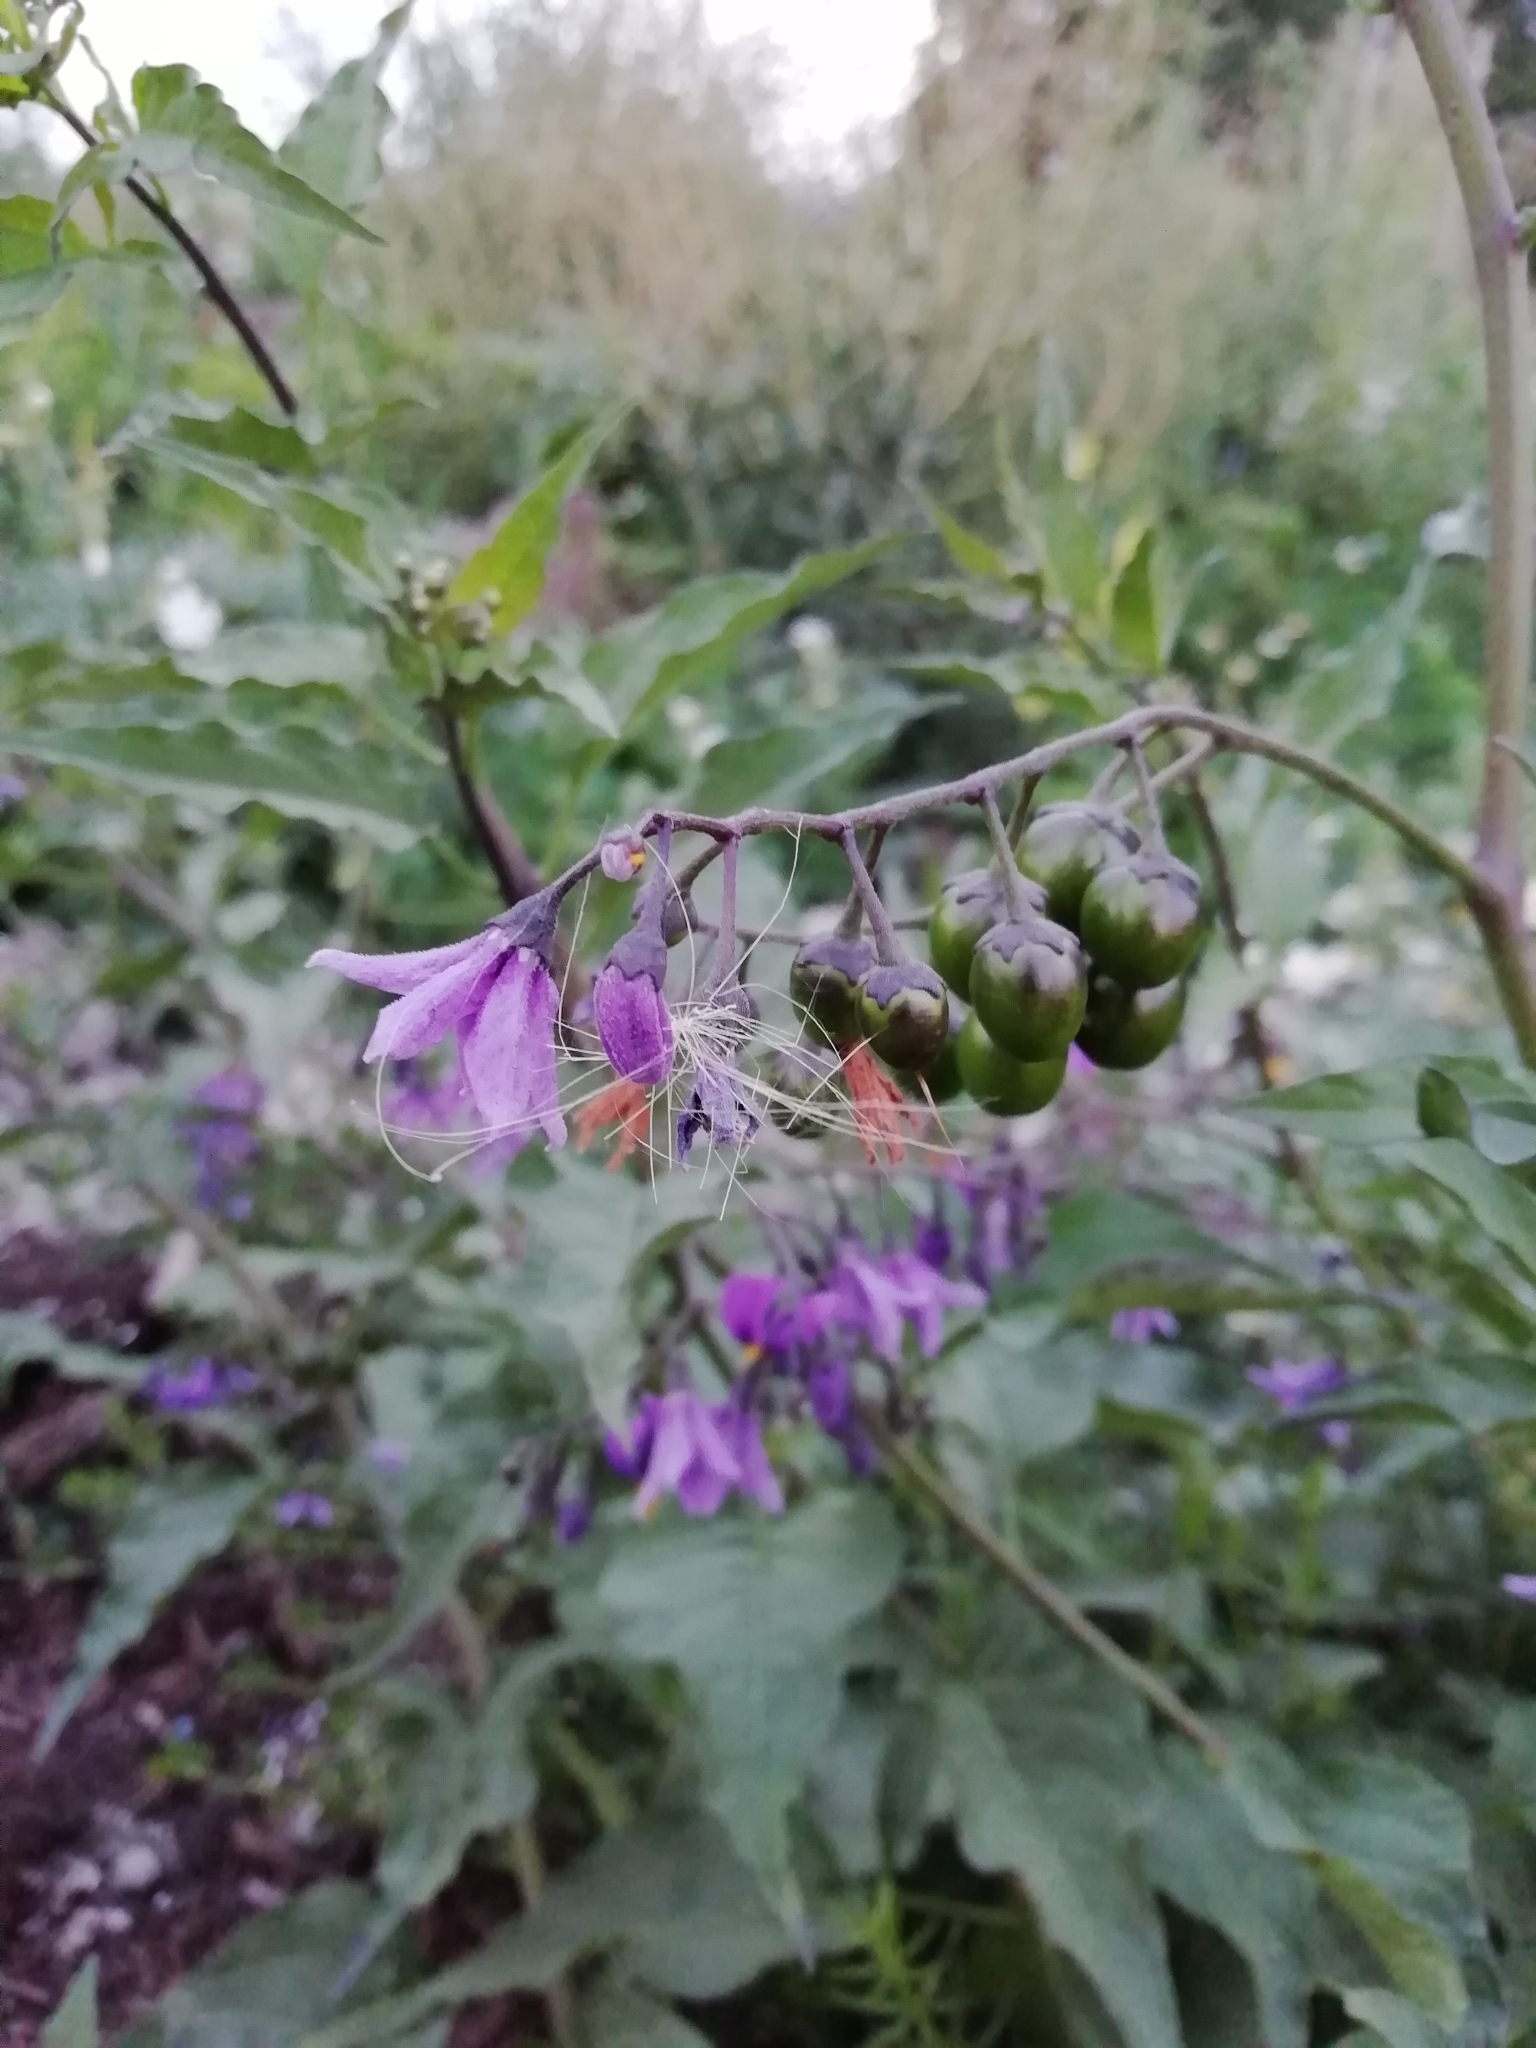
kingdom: Plantae
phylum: Tracheophyta
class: Magnoliopsida
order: Solanales
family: Solanaceae
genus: Solanum
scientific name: Solanum dulcamara
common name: Climbing nightshade
